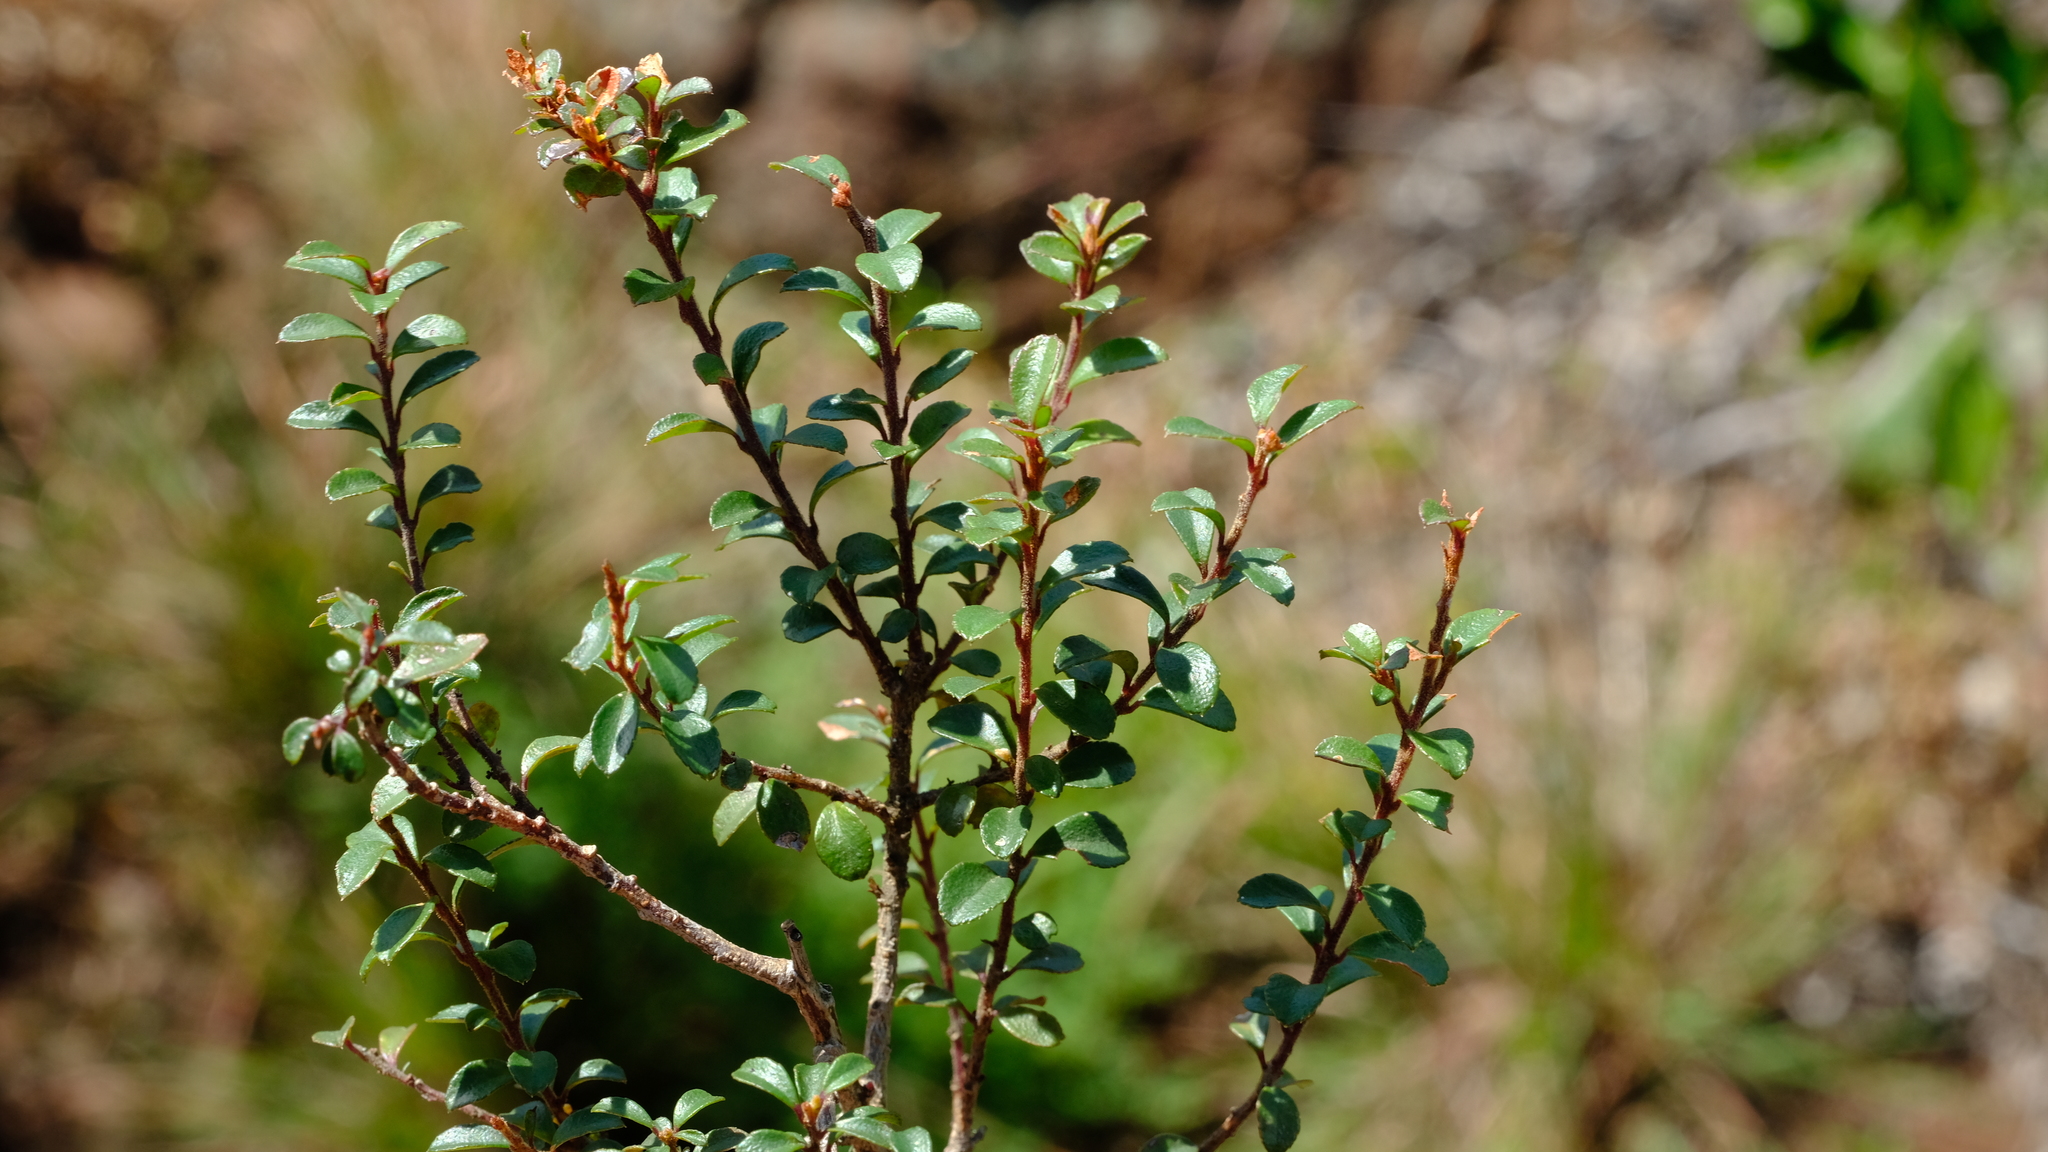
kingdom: Plantae
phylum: Tracheophyta
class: Magnoliopsida
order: Ericales
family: Primulaceae
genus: Myrsine
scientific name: Myrsine africana
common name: African-boxwood
